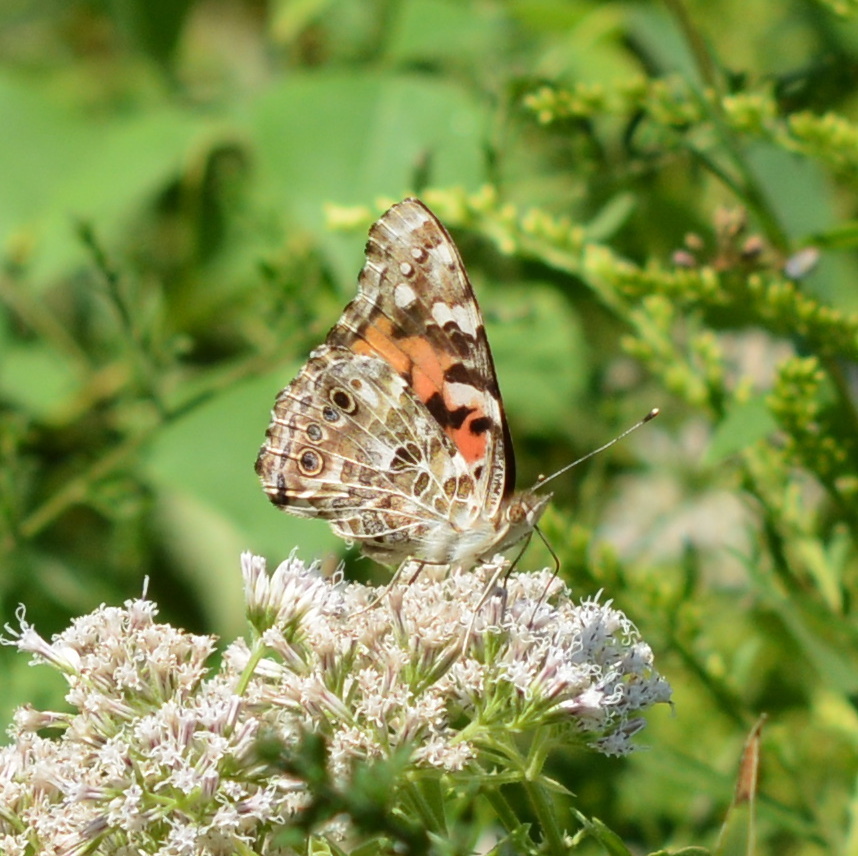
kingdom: Animalia
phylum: Arthropoda
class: Insecta
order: Lepidoptera
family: Nymphalidae
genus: Vanessa
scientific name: Vanessa cardui
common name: Painted lady
